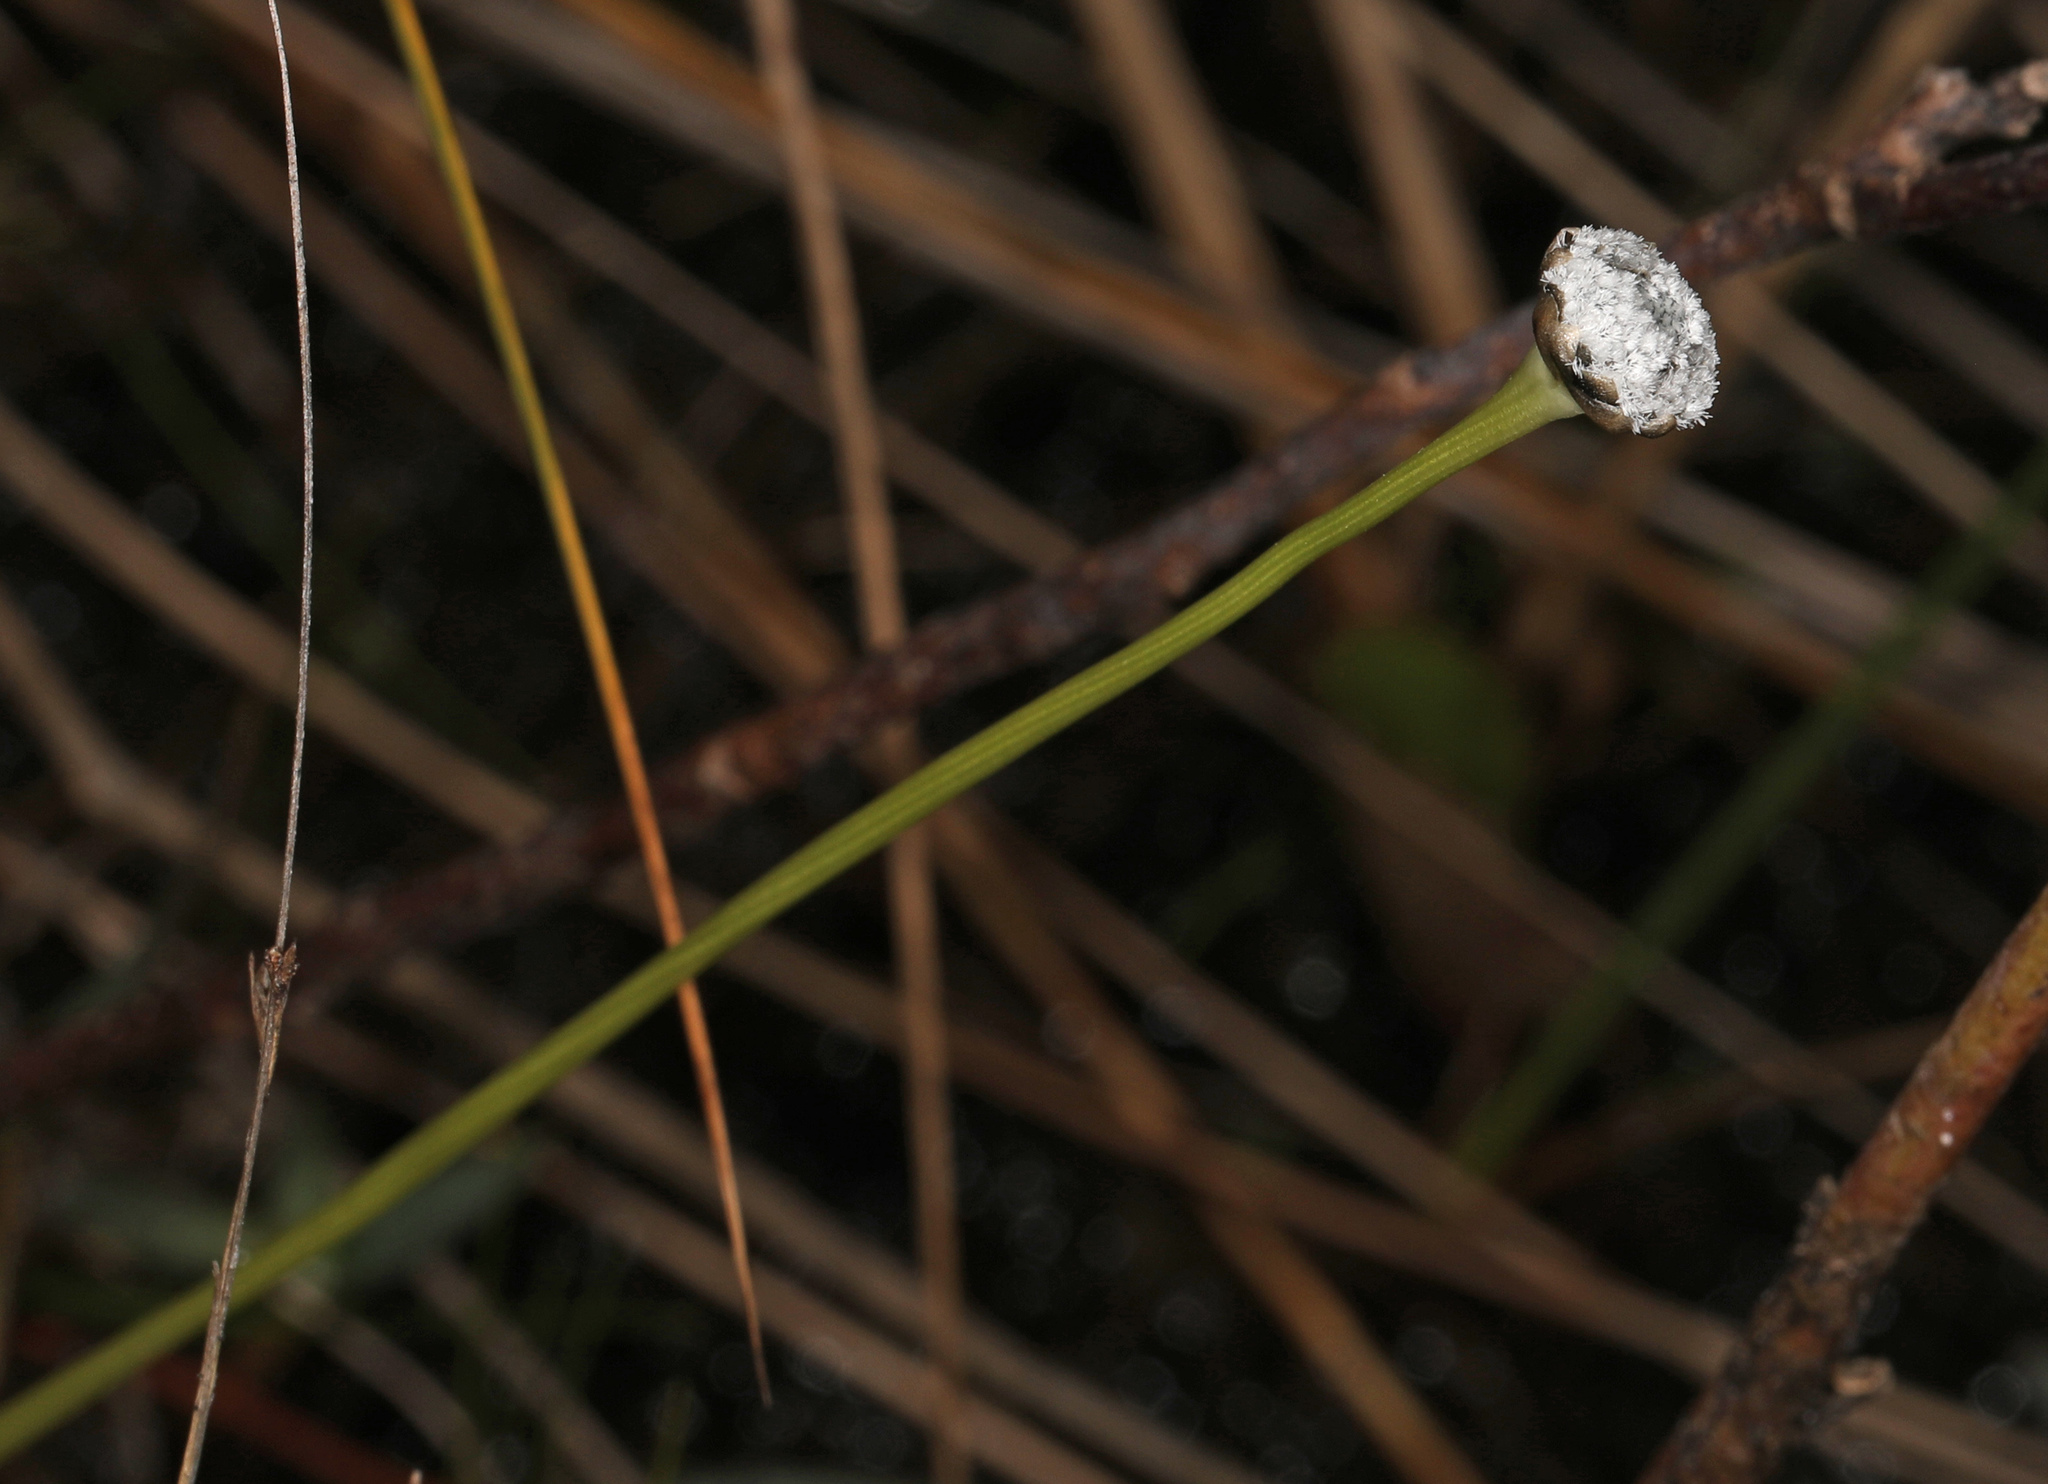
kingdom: Plantae
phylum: Tracheophyta
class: Liliopsida
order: Poales
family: Eriocaulaceae
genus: Eriocaulon
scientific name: Eriocaulon compressum
